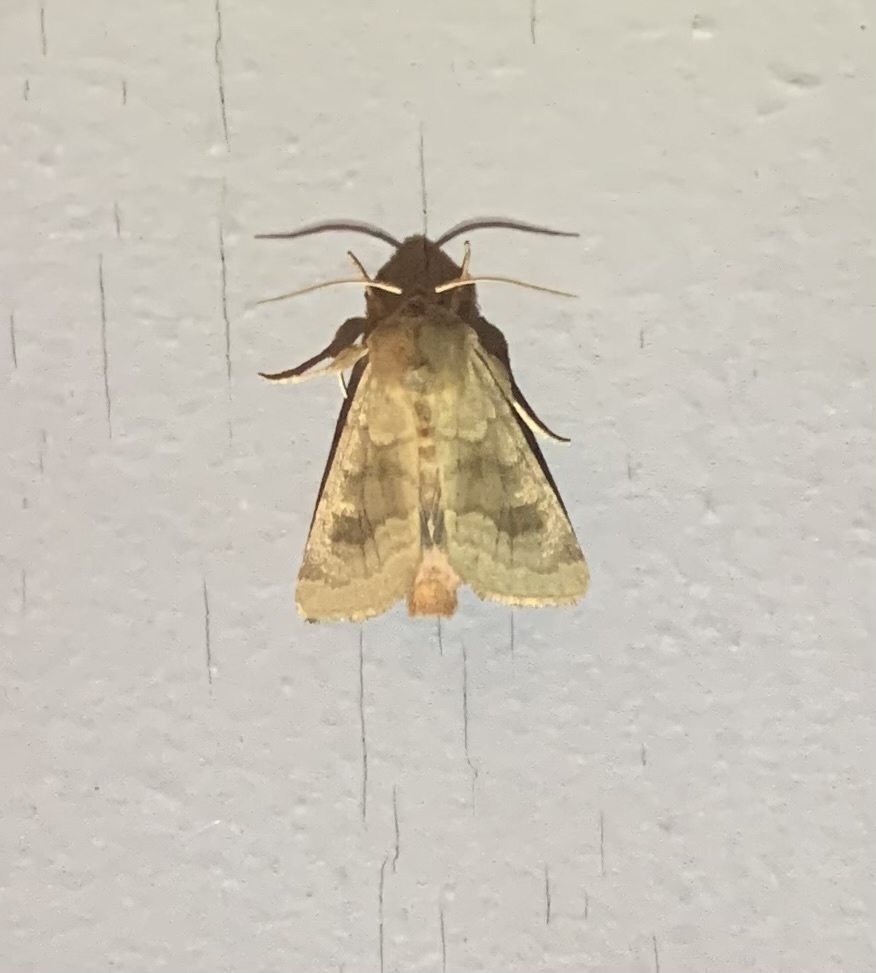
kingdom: Animalia
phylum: Arthropoda
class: Insecta
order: Lepidoptera
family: Noctuidae
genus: Nephelodes
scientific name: Nephelodes minians
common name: Bronzed cutworm
